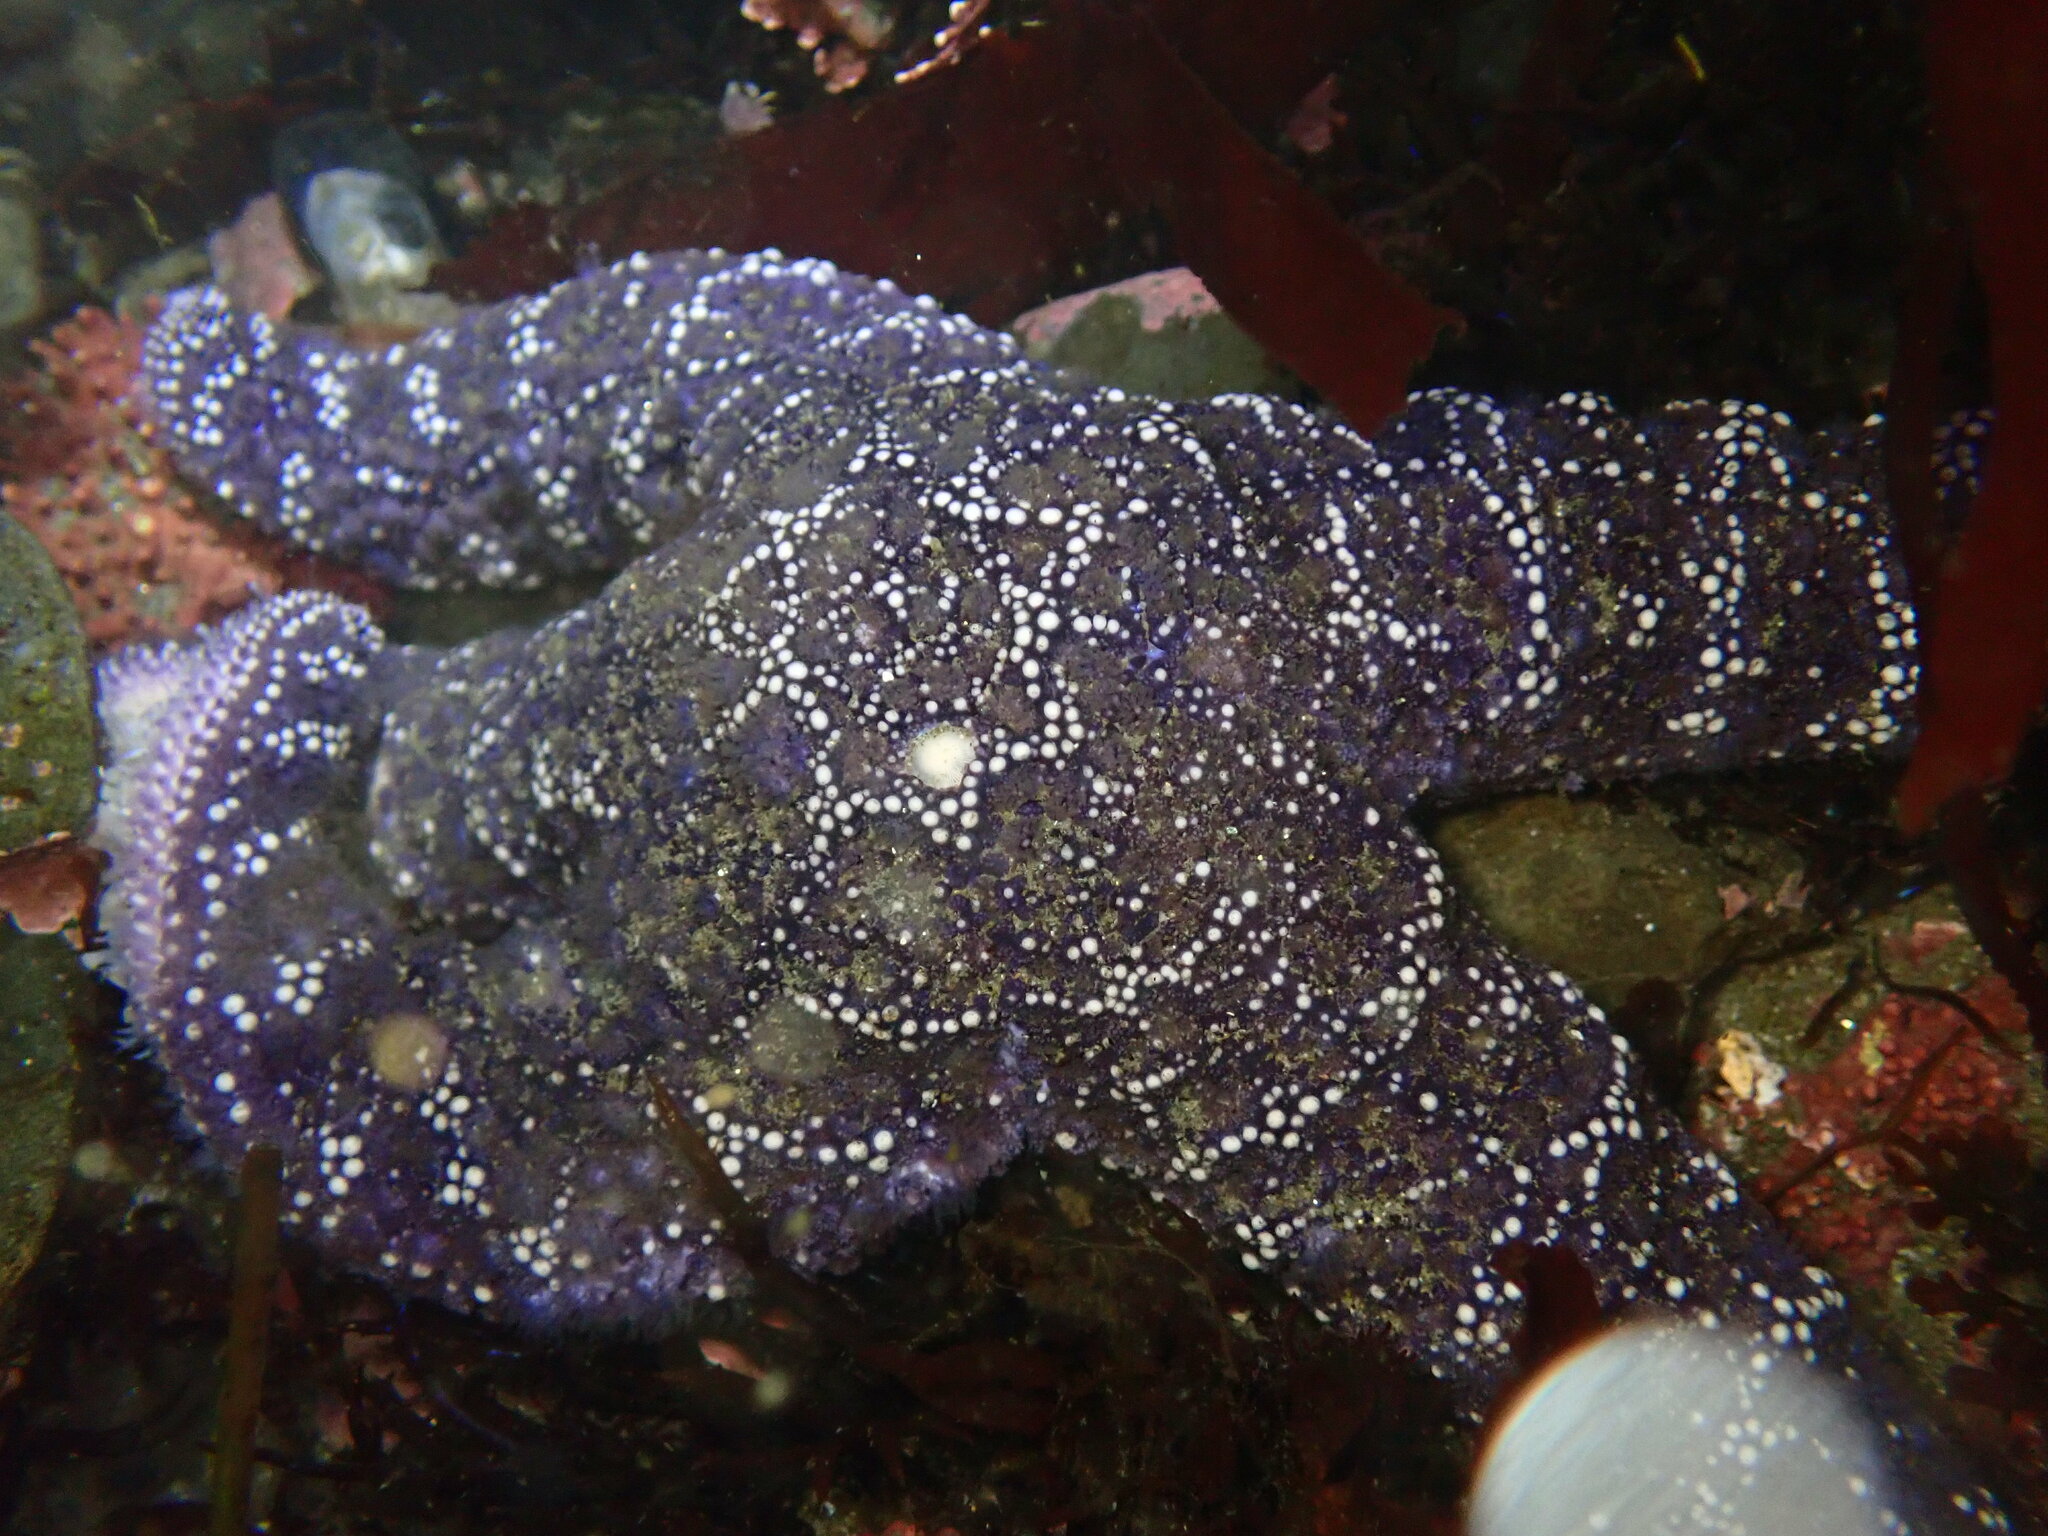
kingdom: Animalia
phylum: Echinodermata
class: Asteroidea
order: Forcipulatida
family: Asteriidae
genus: Pisaster
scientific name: Pisaster ochraceus
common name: Ochre stars
